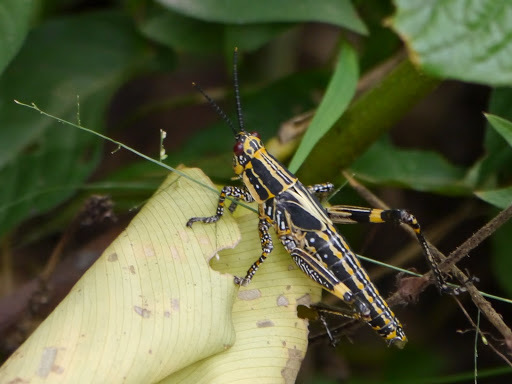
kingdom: Animalia
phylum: Arthropoda
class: Insecta
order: Orthoptera
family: Pyrgomorphidae
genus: Zonocerus
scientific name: Zonocerus variegatus
